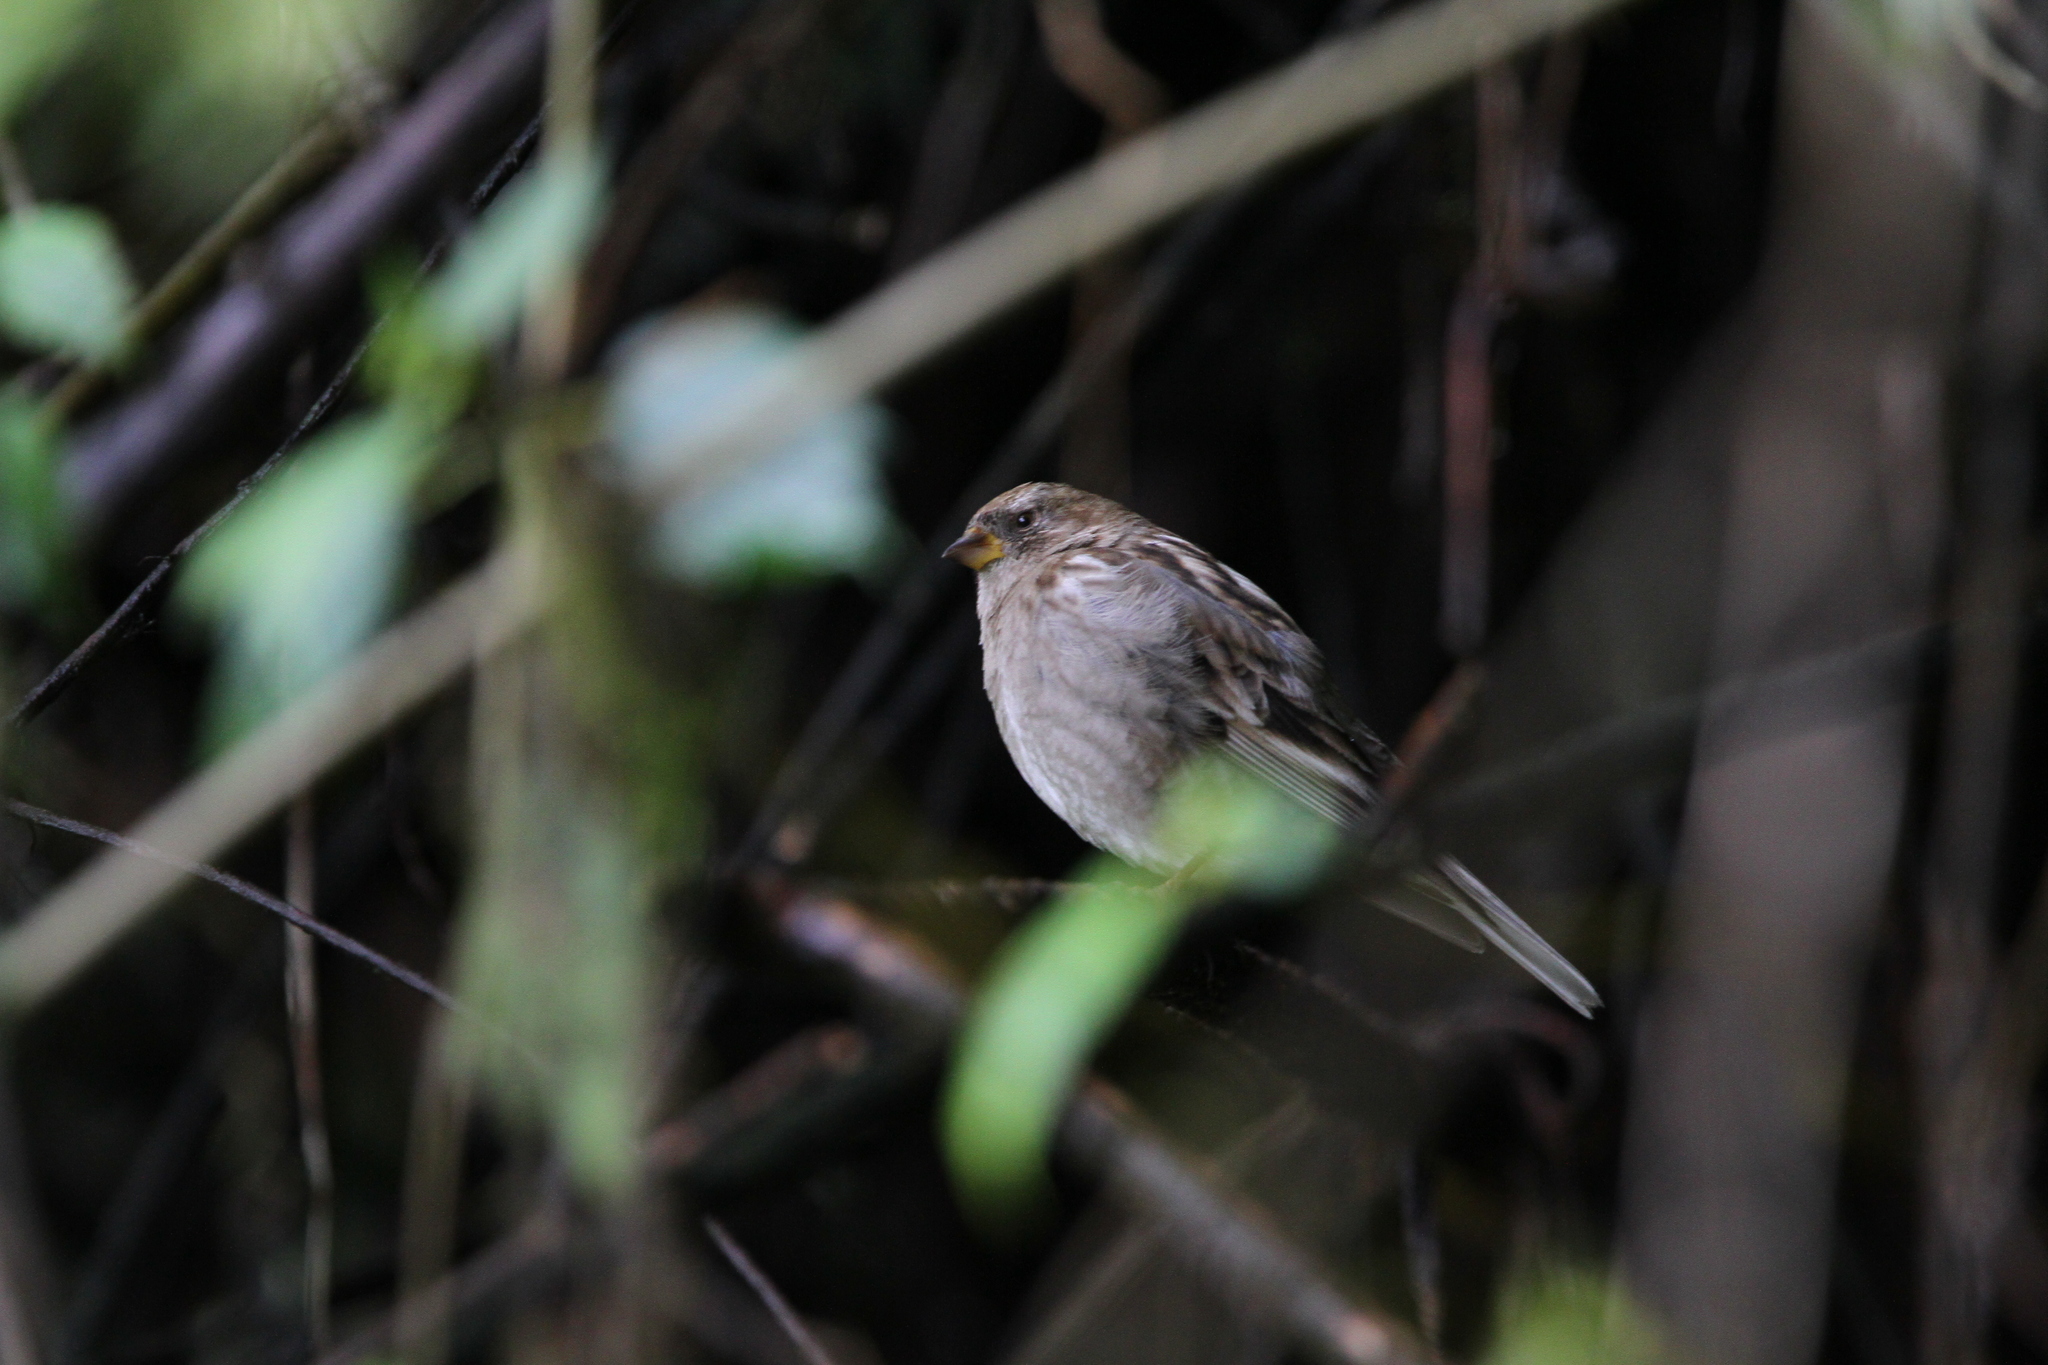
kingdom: Animalia
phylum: Chordata
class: Aves
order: Passeriformes
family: Fringillidae
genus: Leucosticte
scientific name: Leucosticte nemoricola
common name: Plain mountain finch
